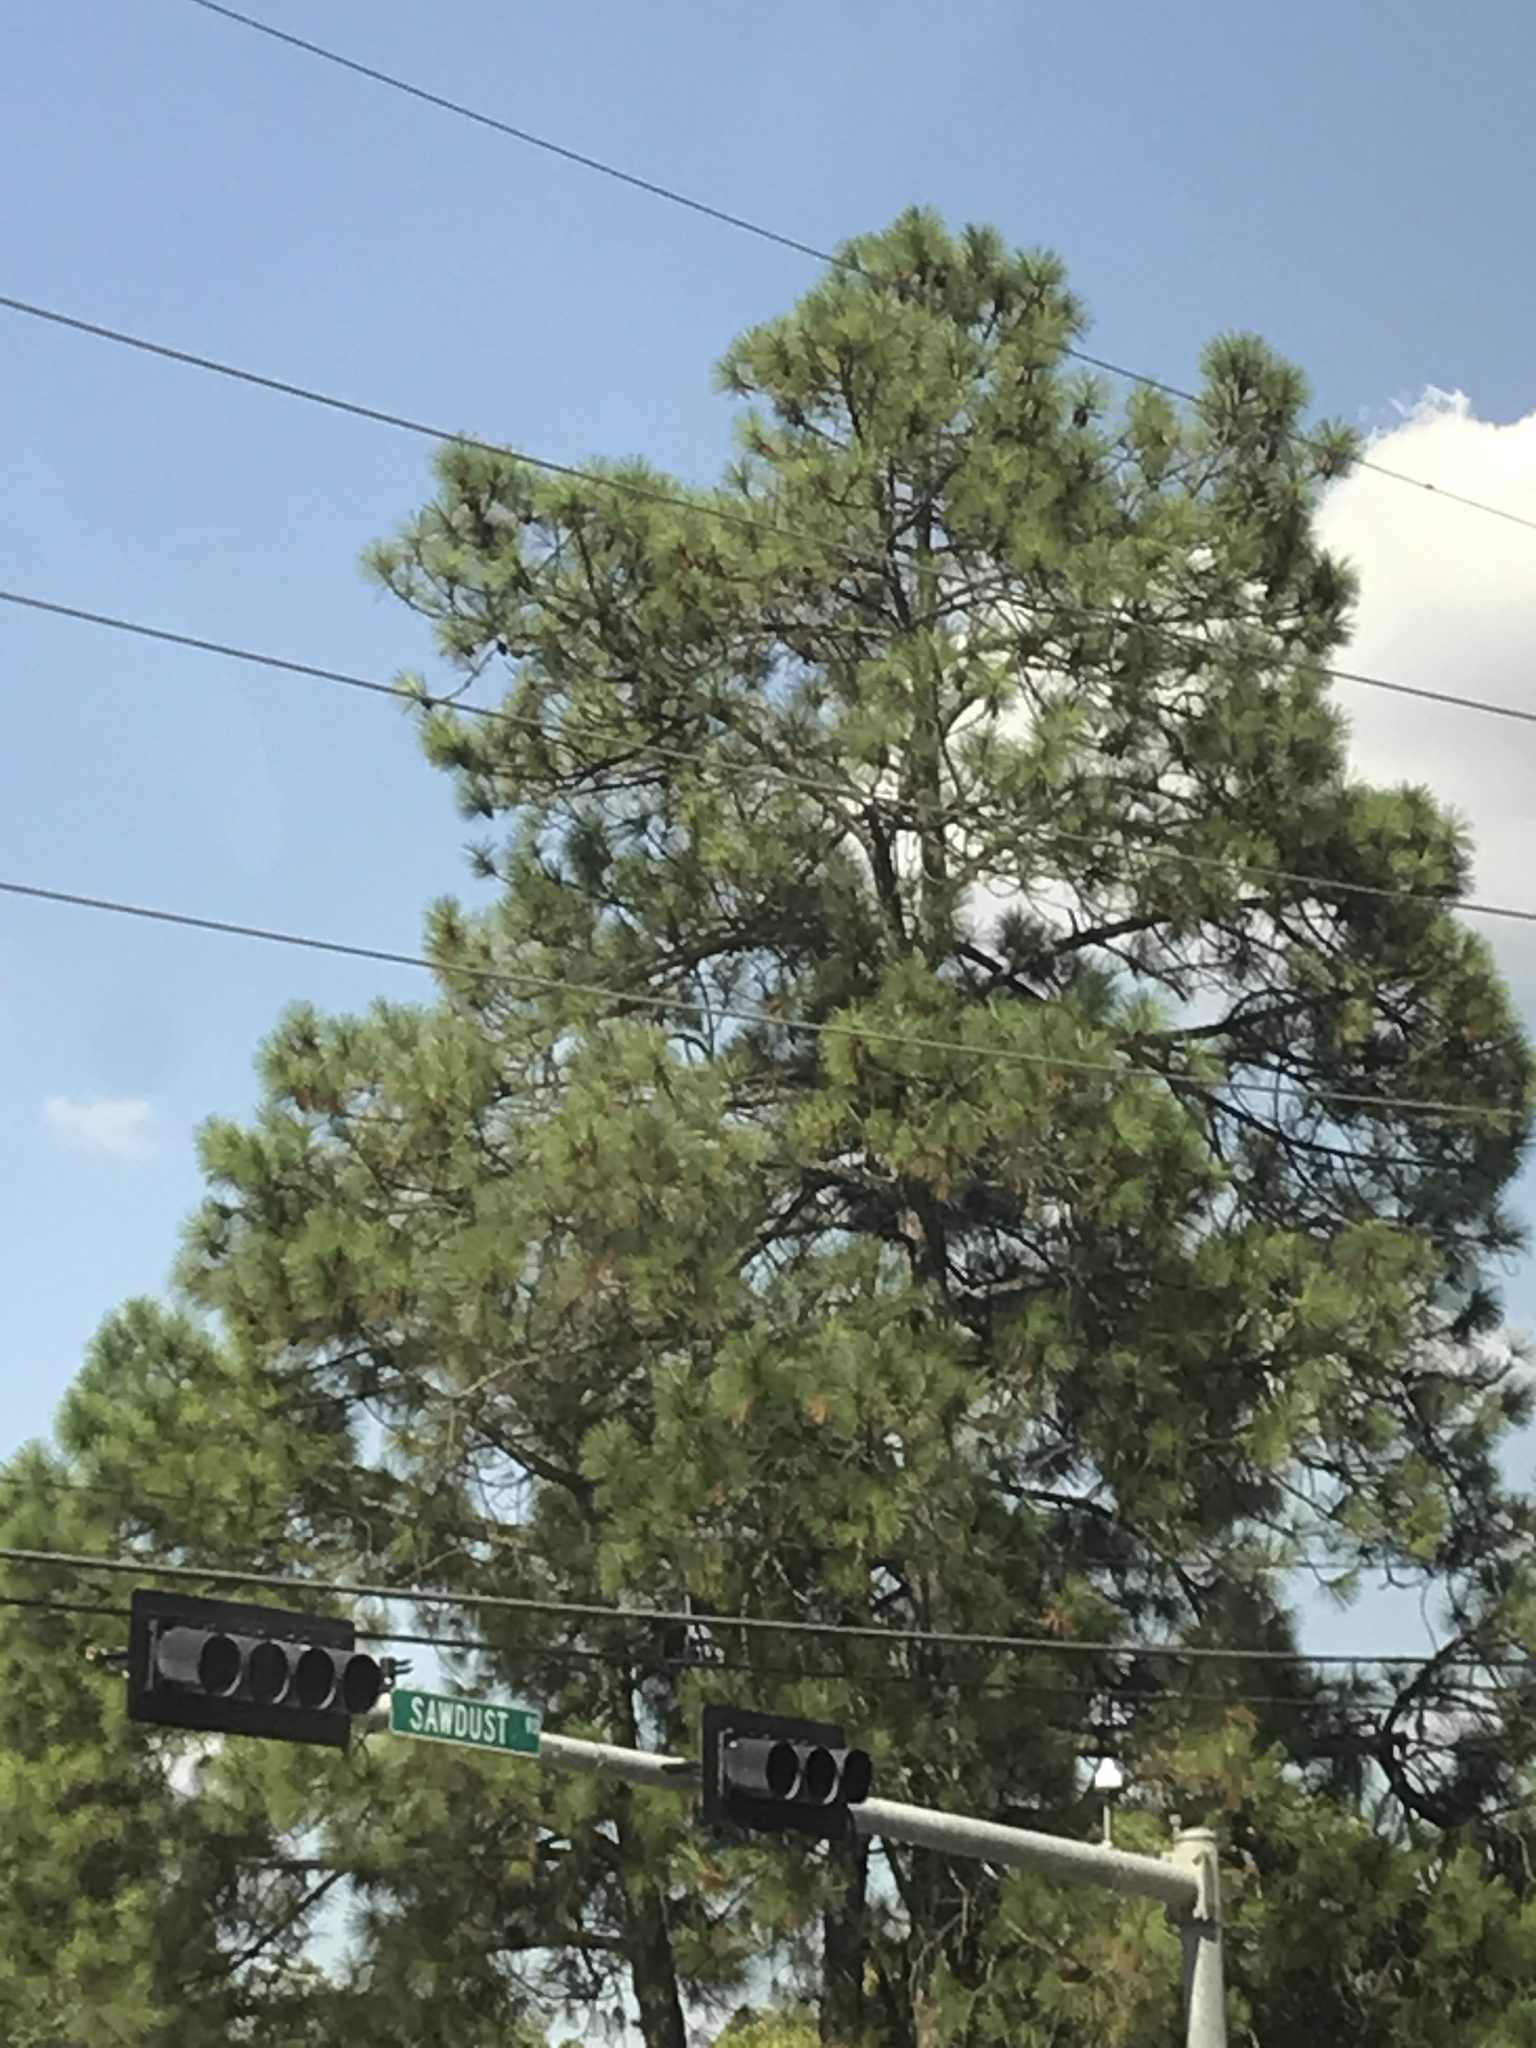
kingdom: Plantae
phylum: Tracheophyta
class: Pinopsida
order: Pinales
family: Pinaceae
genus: Pinus
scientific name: Pinus taeda
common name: Loblolly pine
